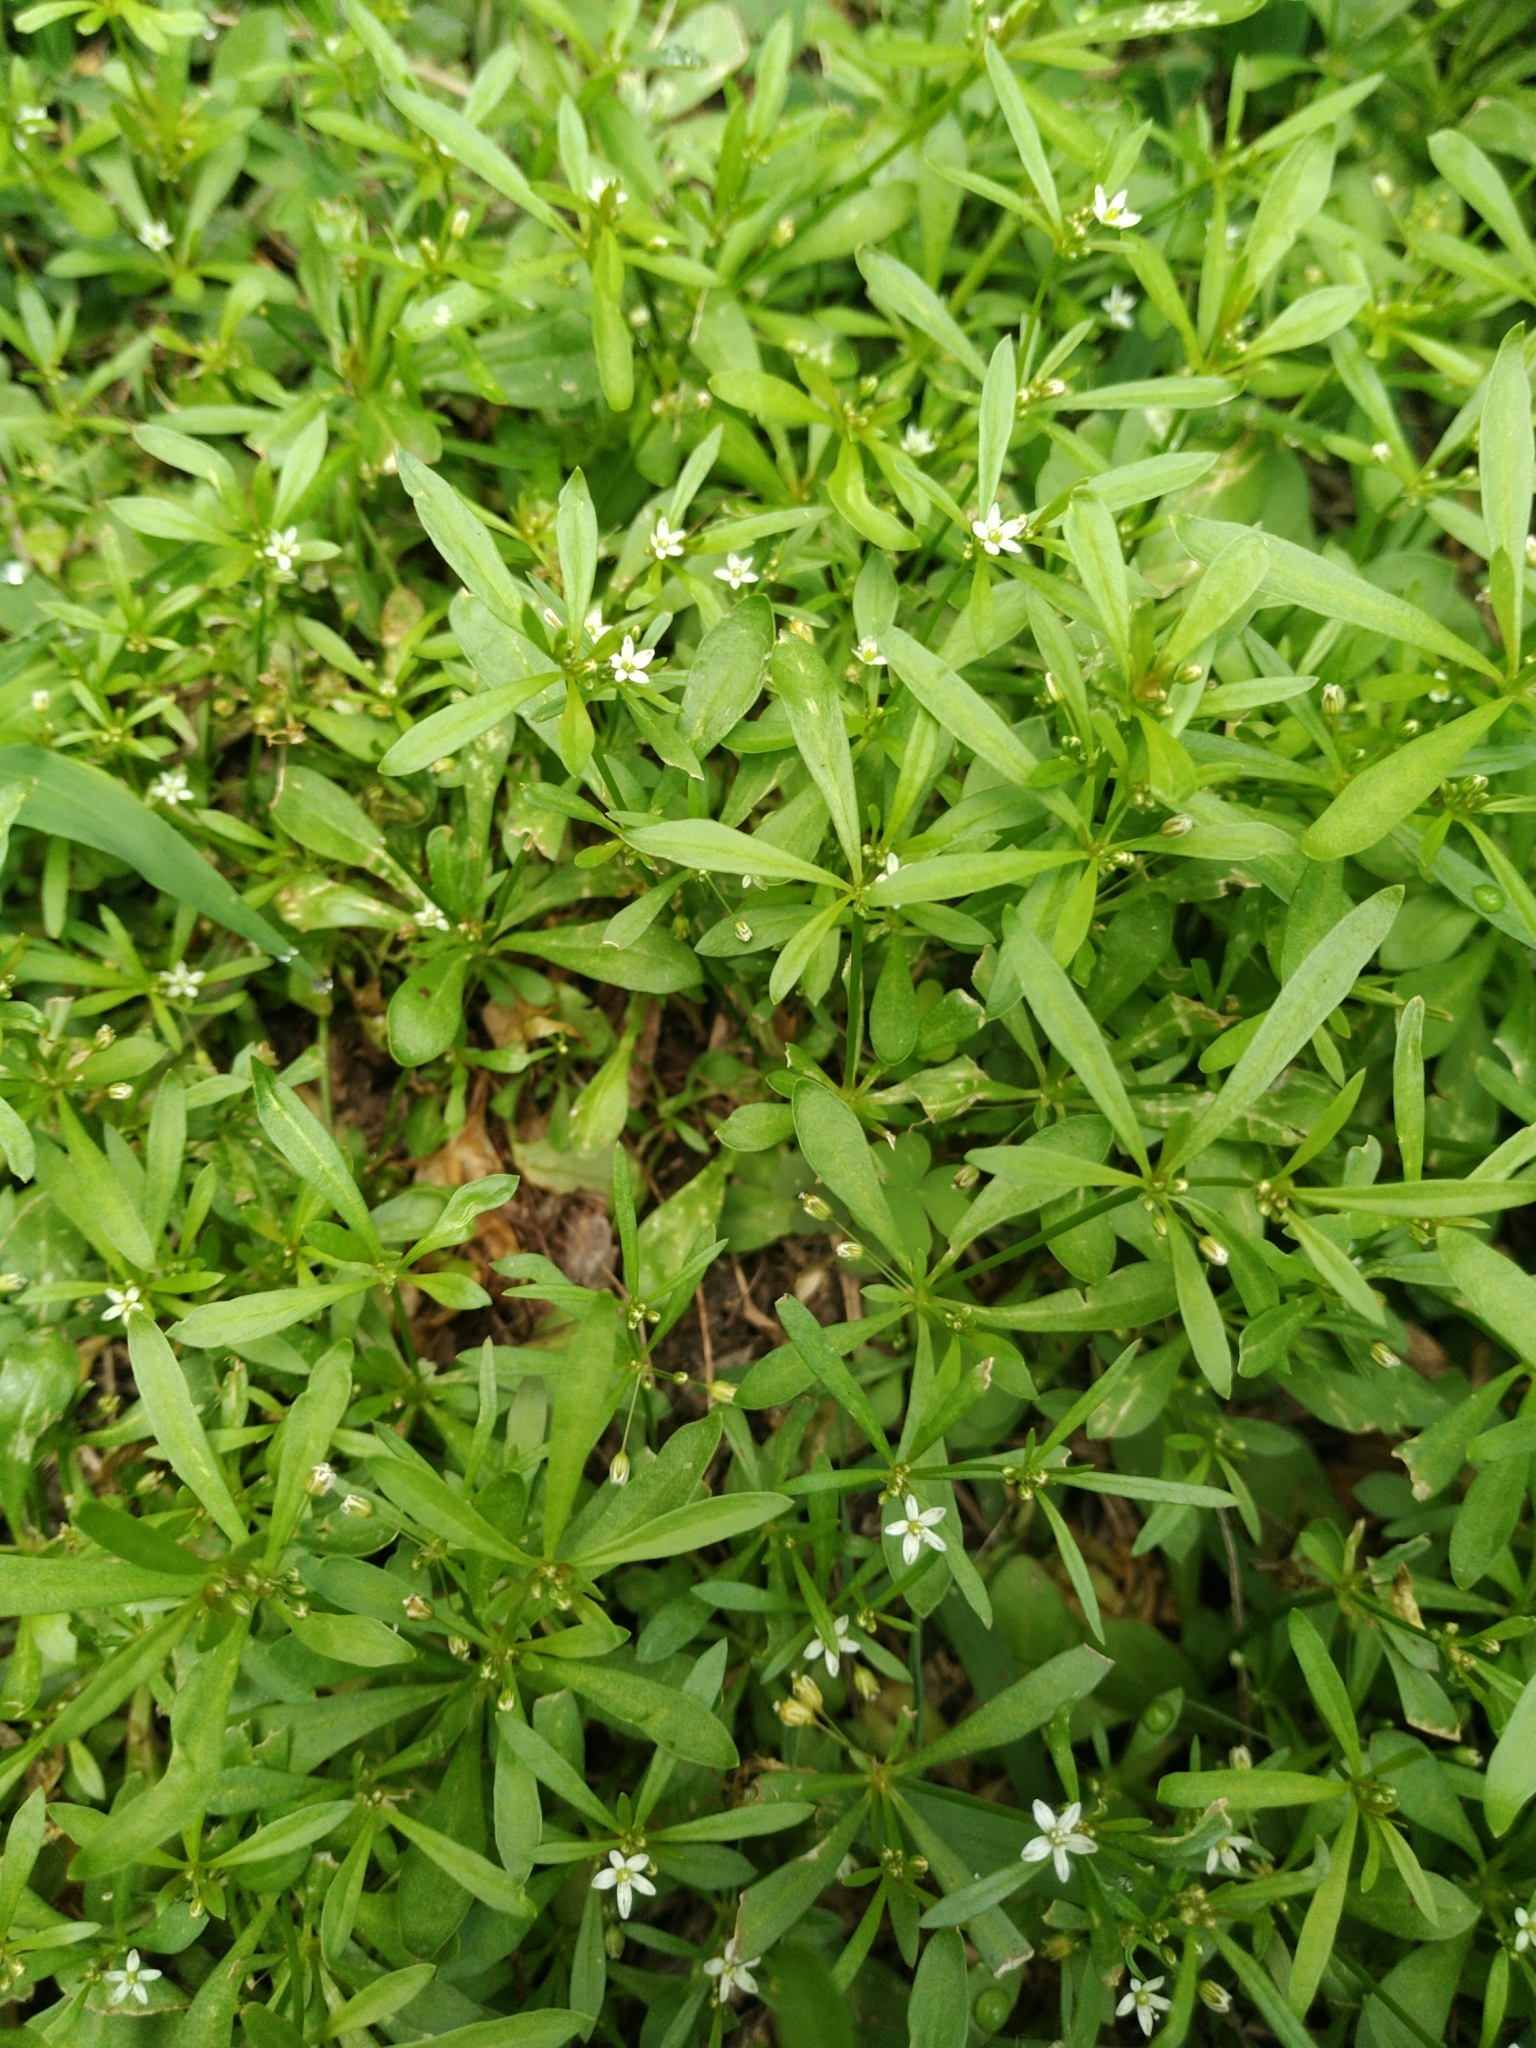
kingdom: Plantae
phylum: Tracheophyta
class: Magnoliopsida
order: Caryophyllales
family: Molluginaceae
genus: Mollugo
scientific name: Mollugo verticillata
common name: Green carpetweed
